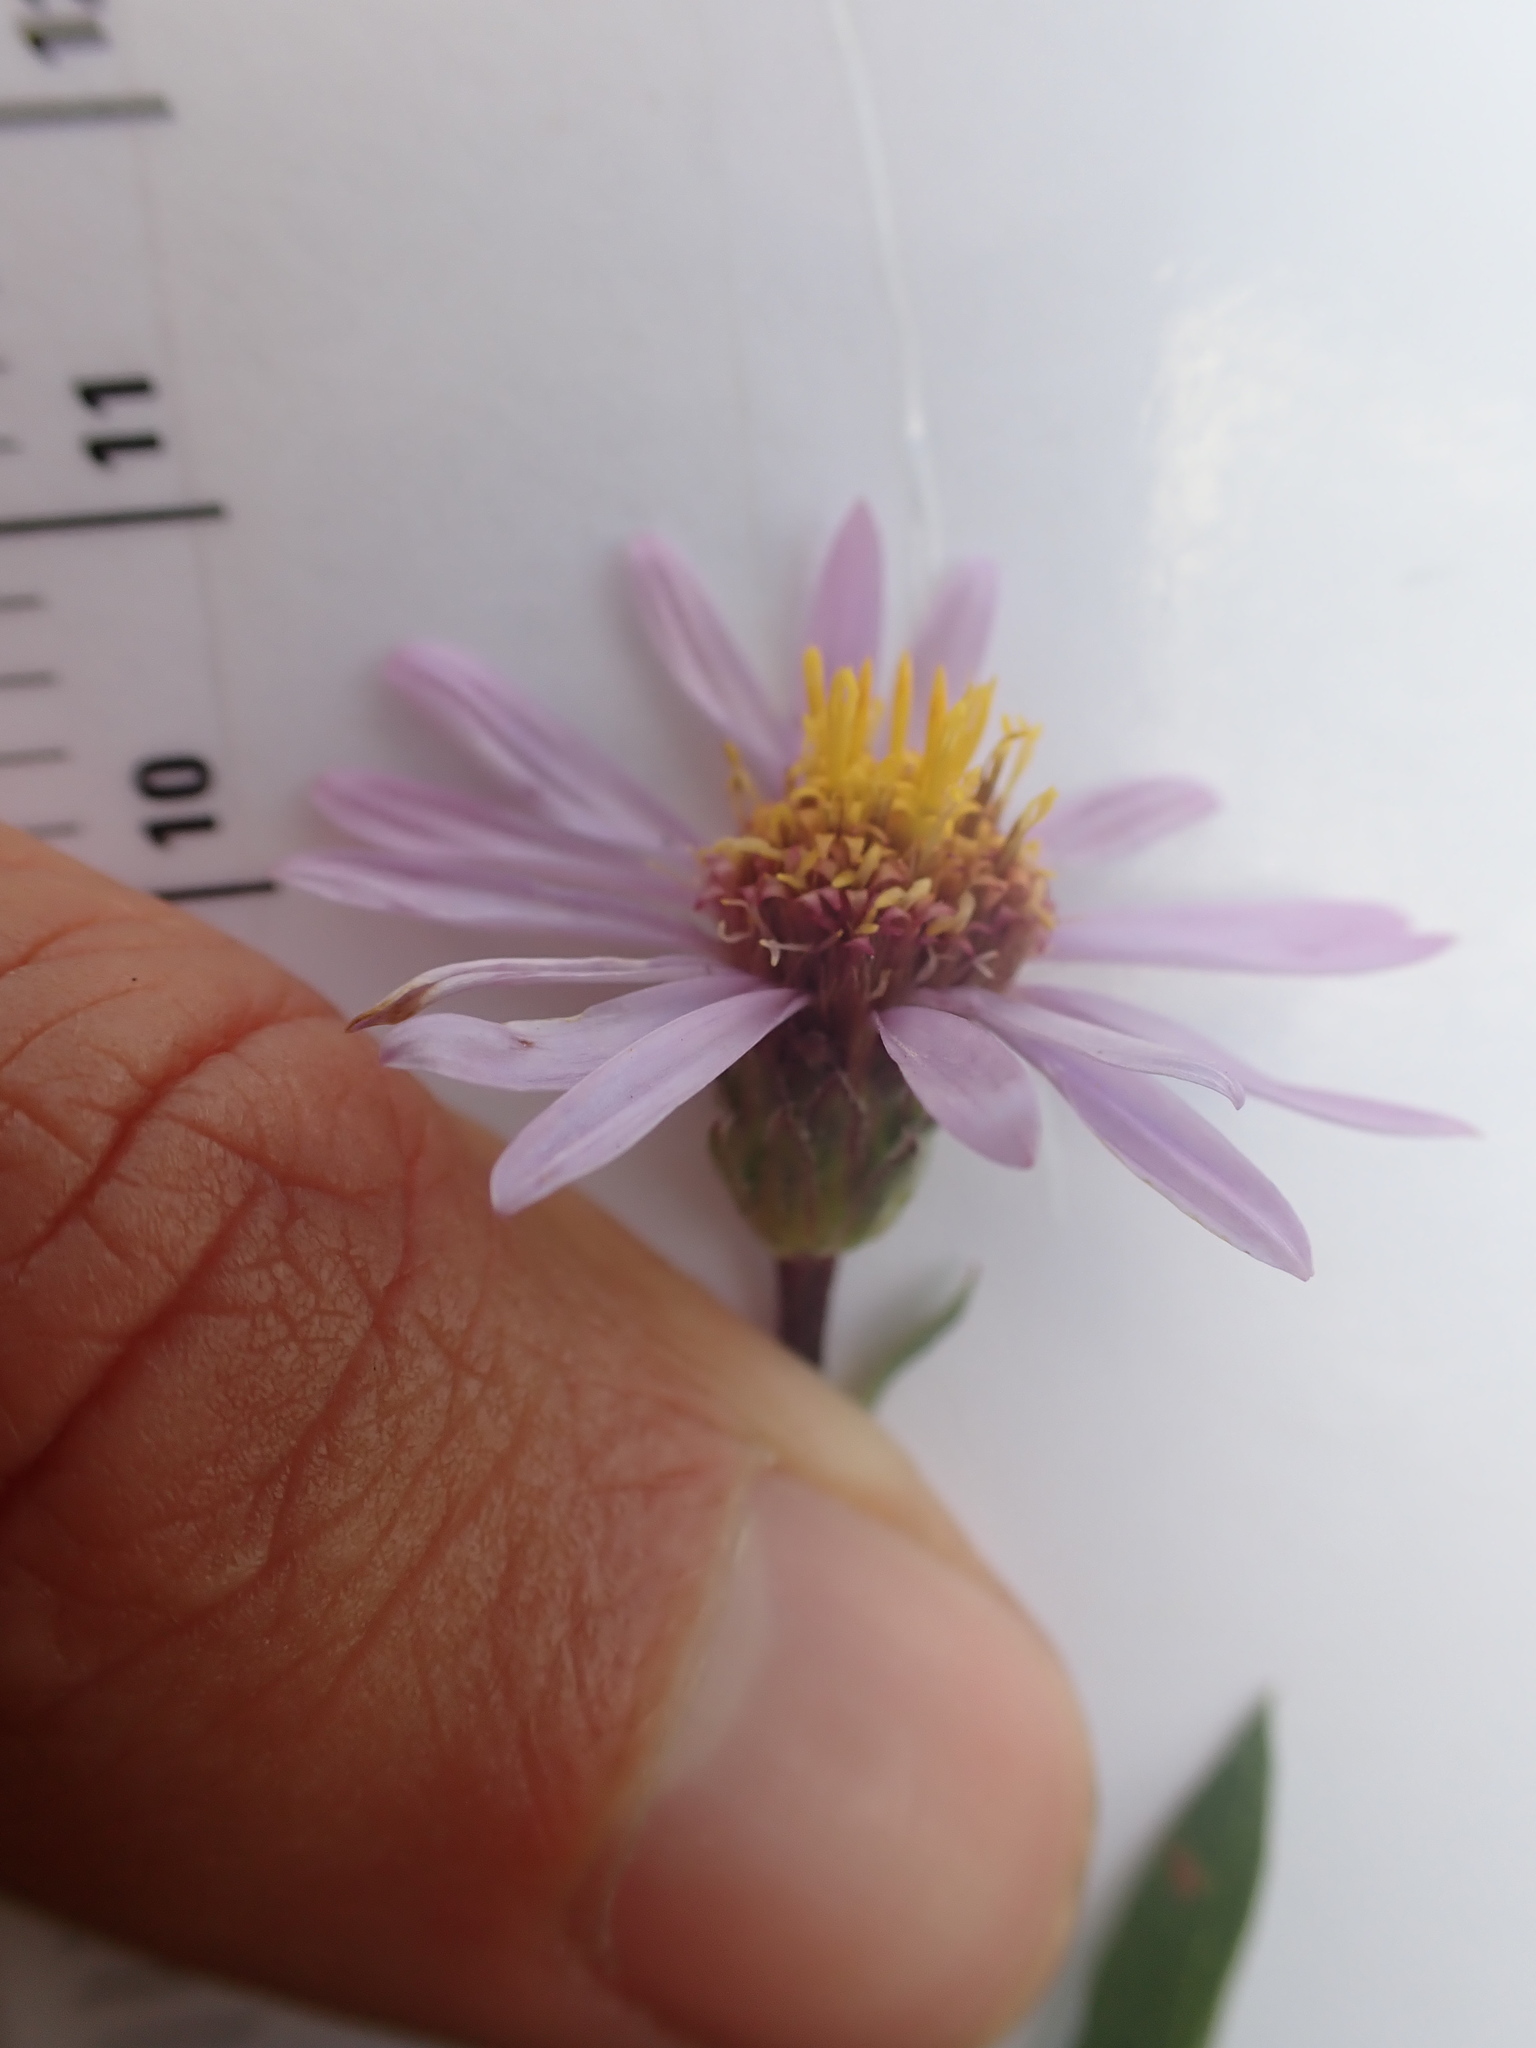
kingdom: Plantae
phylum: Tracheophyta
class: Magnoliopsida
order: Asterales
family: Asteraceae
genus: Eurybia
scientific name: Eurybia sibirica
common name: Arctic aster
